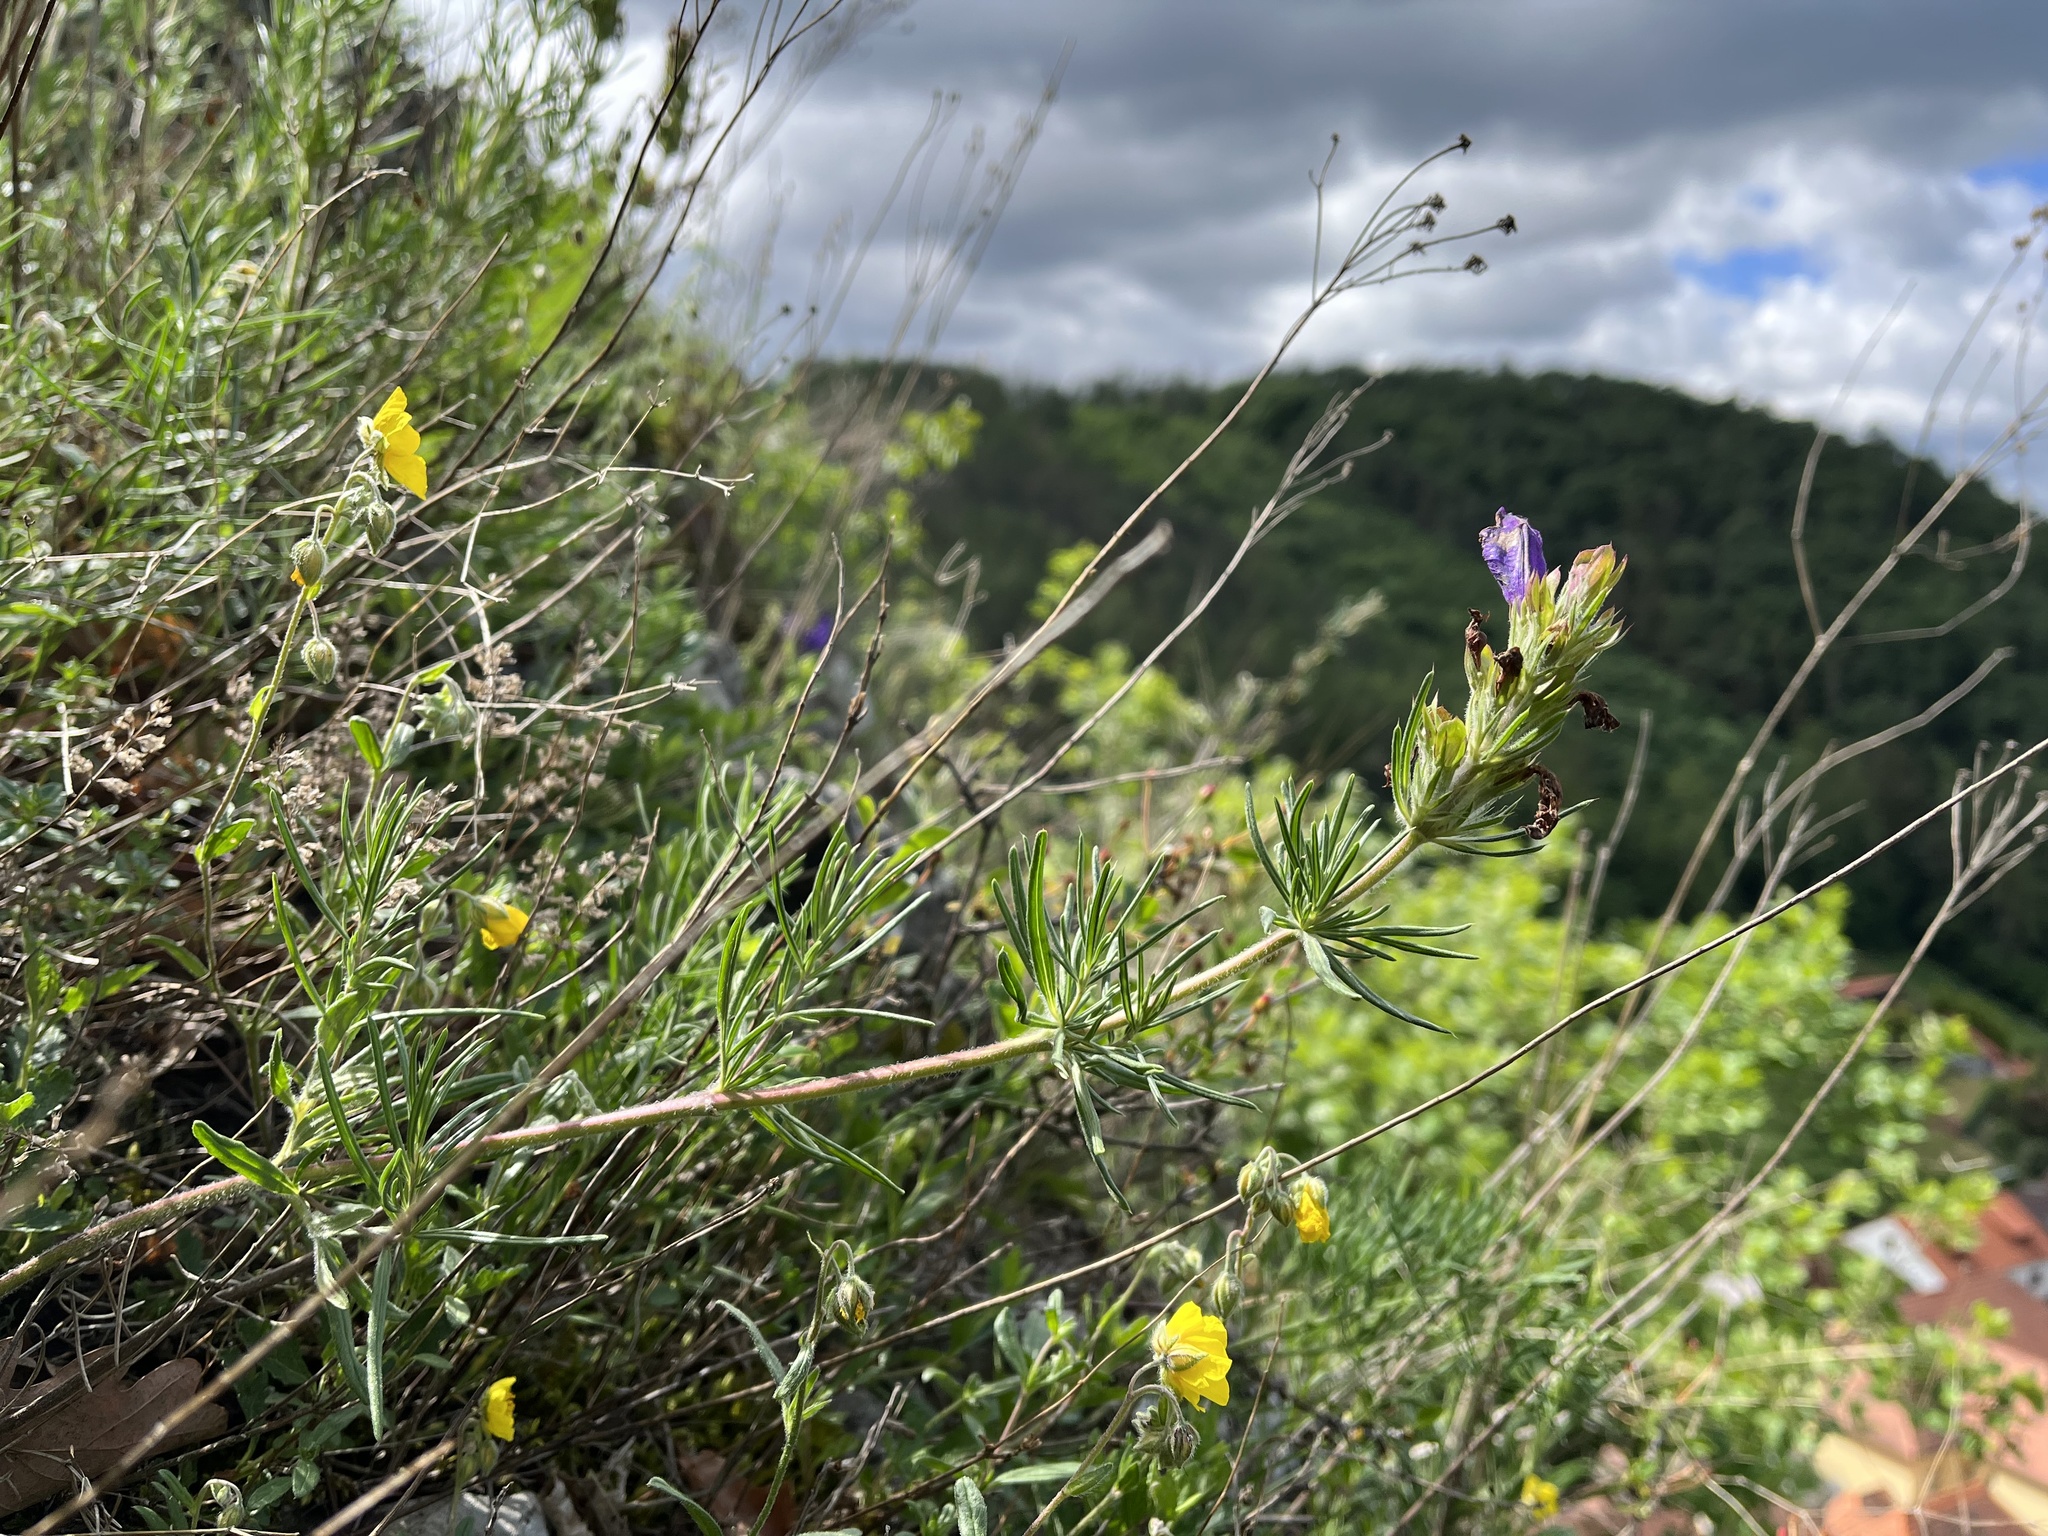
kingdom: Plantae
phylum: Tracheophyta
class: Magnoliopsida
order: Lamiales
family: Lamiaceae
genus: Dracocephalum
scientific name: Dracocephalum austriacum
